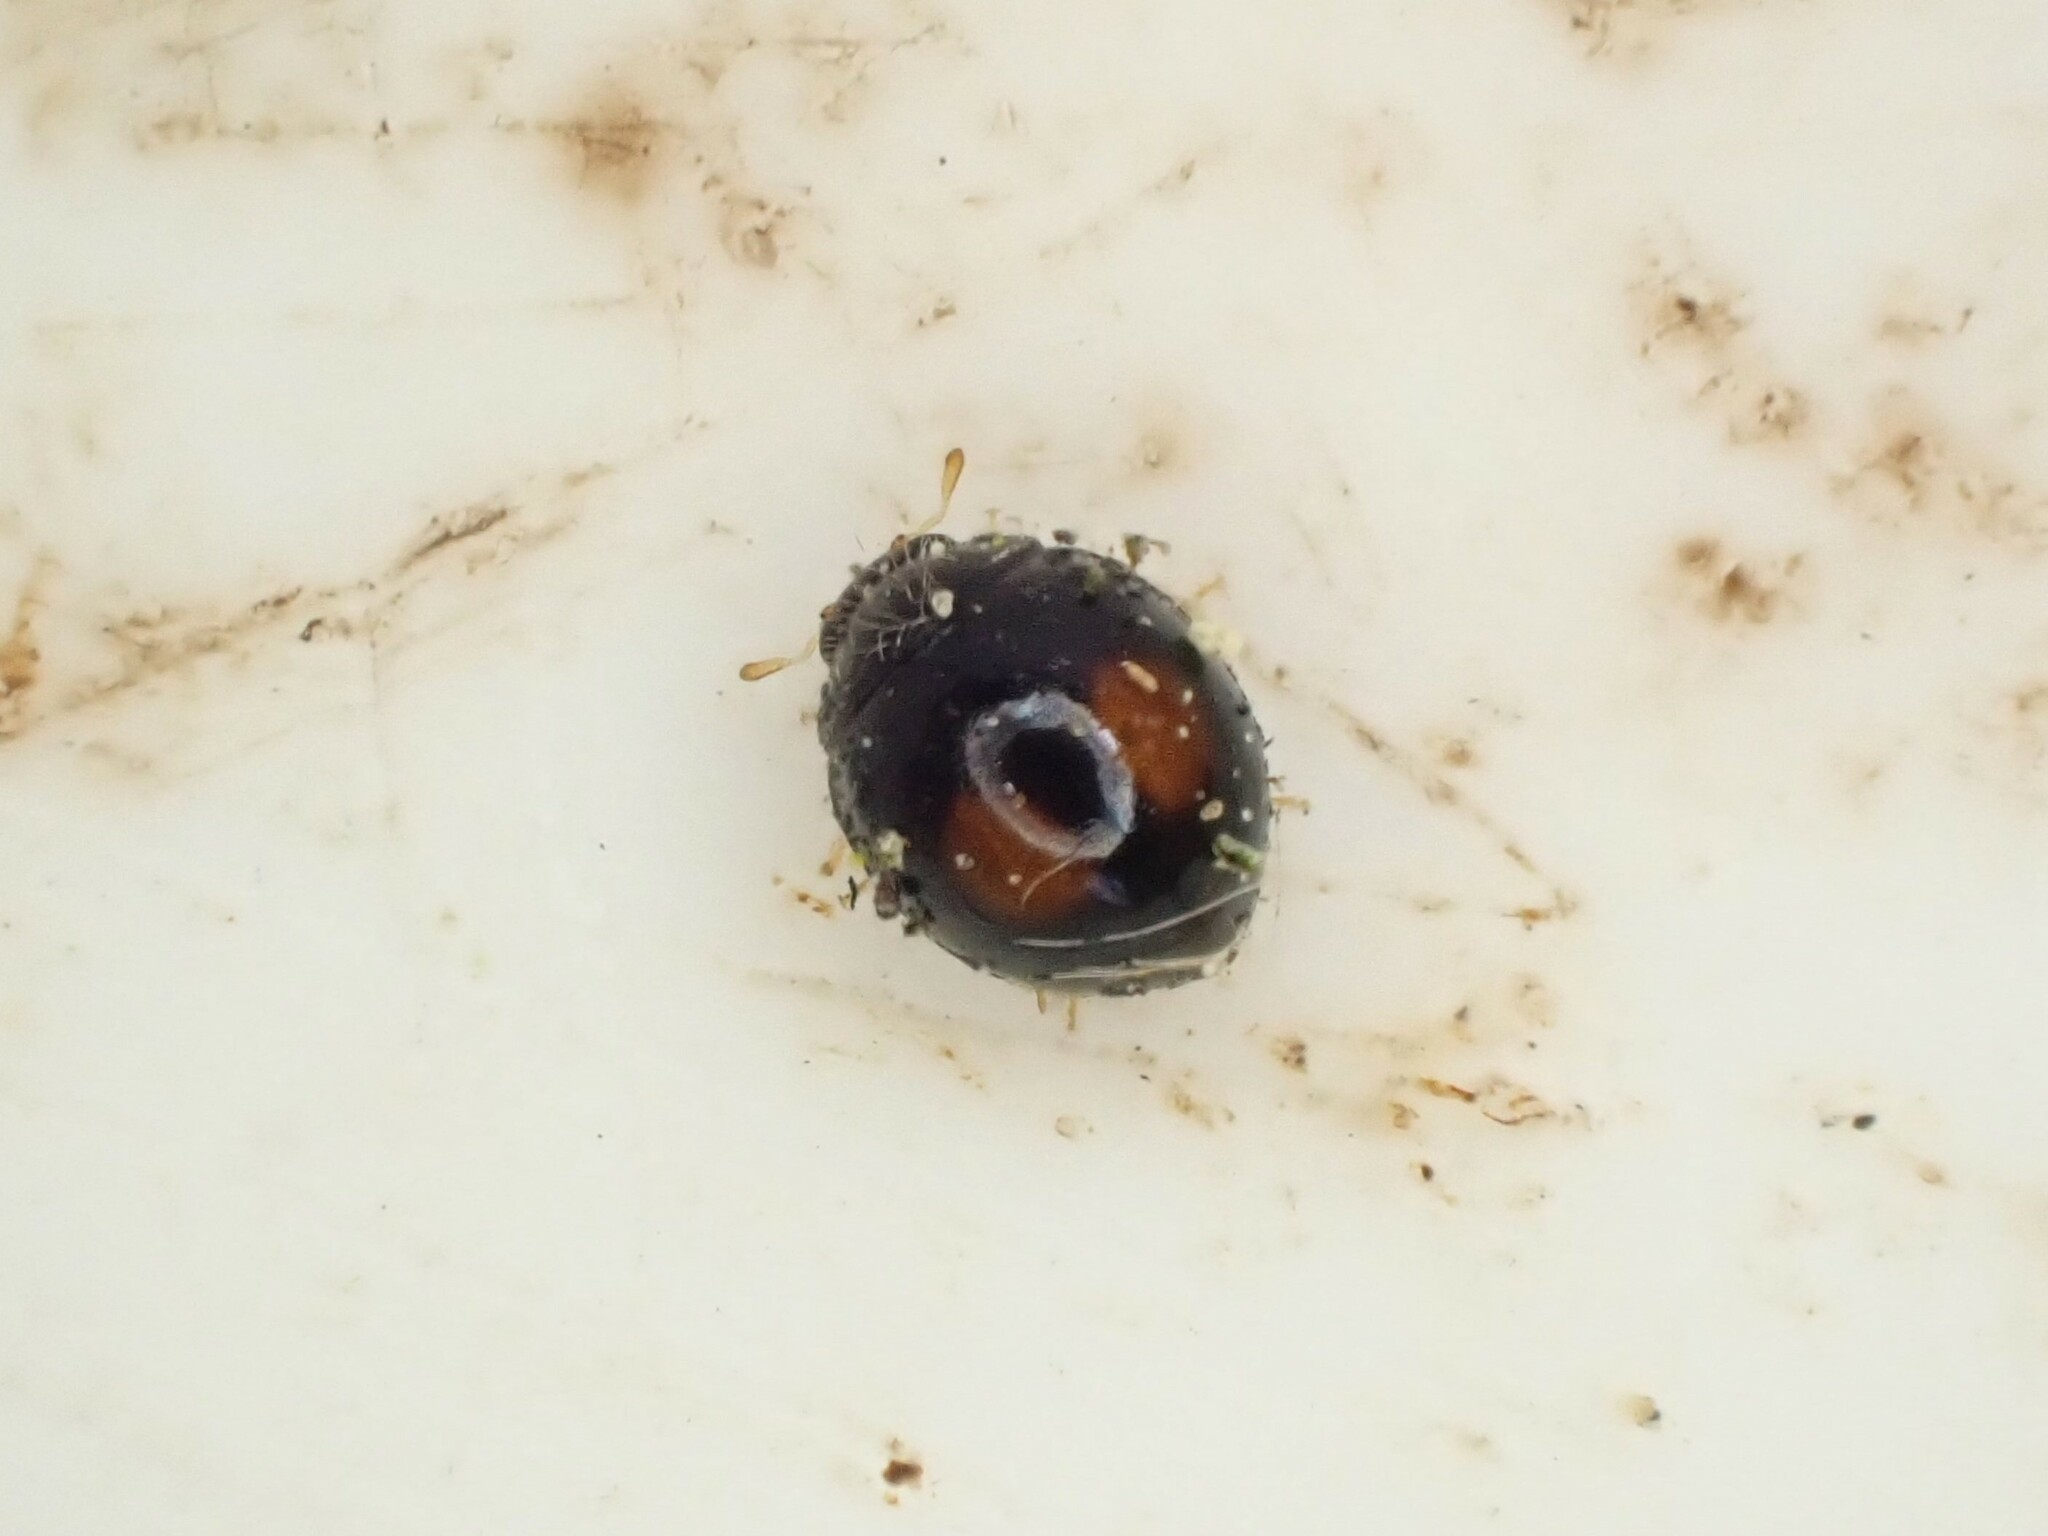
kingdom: Animalia
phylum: Arthropoda
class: Insecta
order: Coleoptera
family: Coccinellidae
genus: Serangium
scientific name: Serangium maculigerum
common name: Lady beetle
